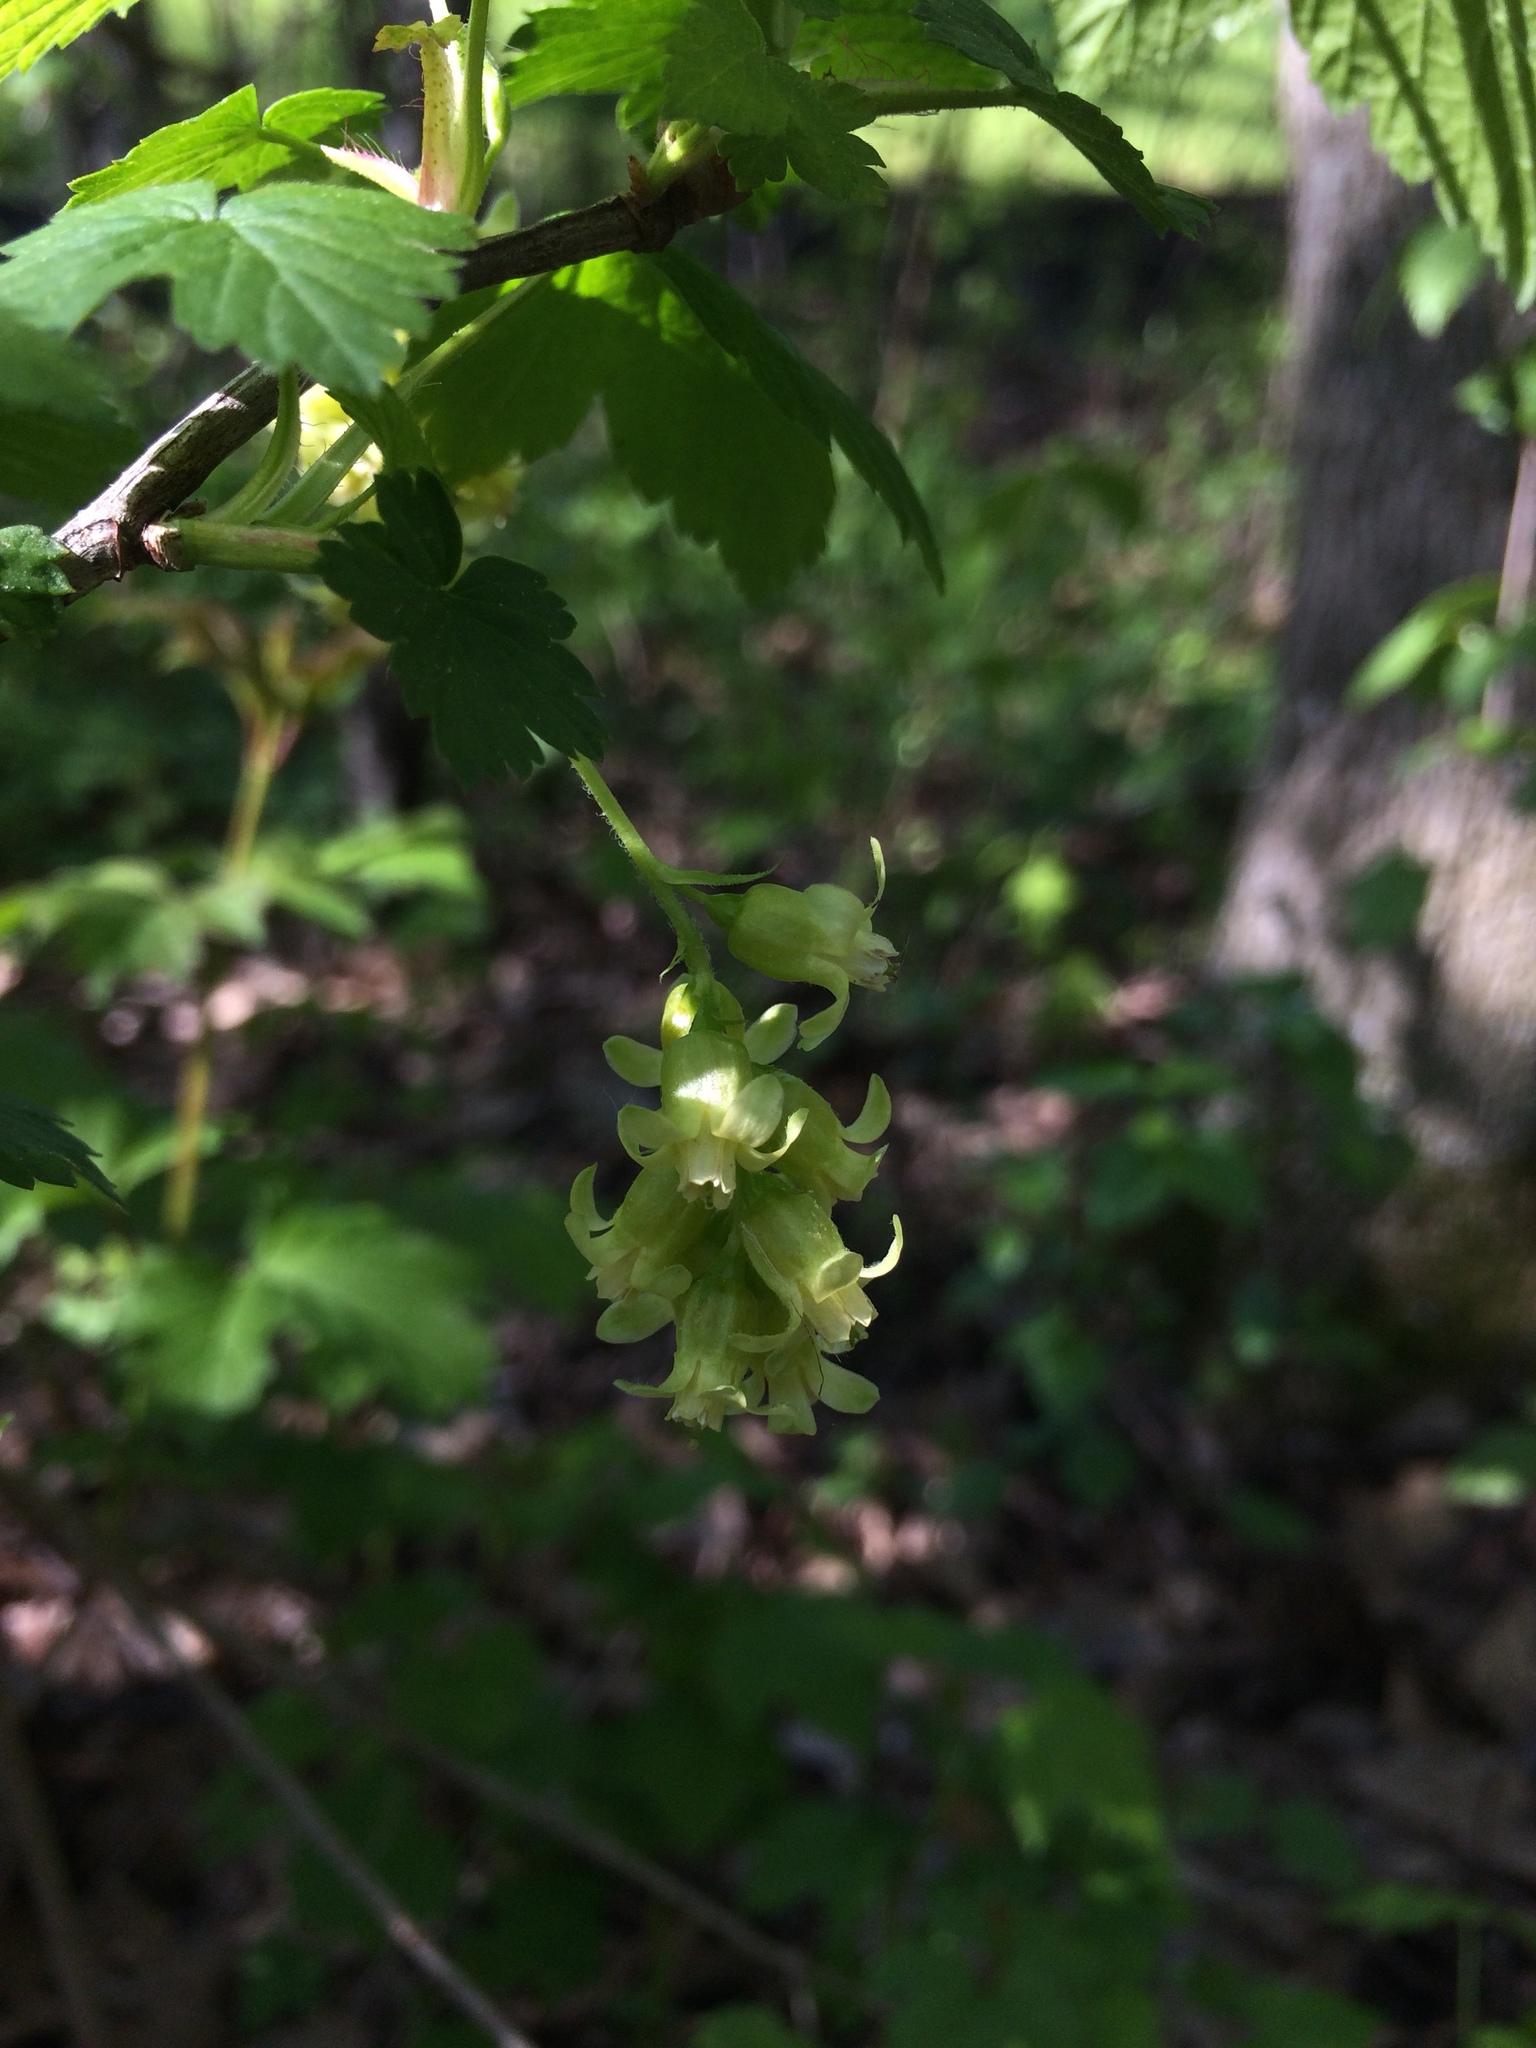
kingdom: Plantae
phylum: Tracheophyta
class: Magnoliopsida
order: Saxifragales
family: Grossulariaceae
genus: Ribes
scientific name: Ribes americanum
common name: American black currant
